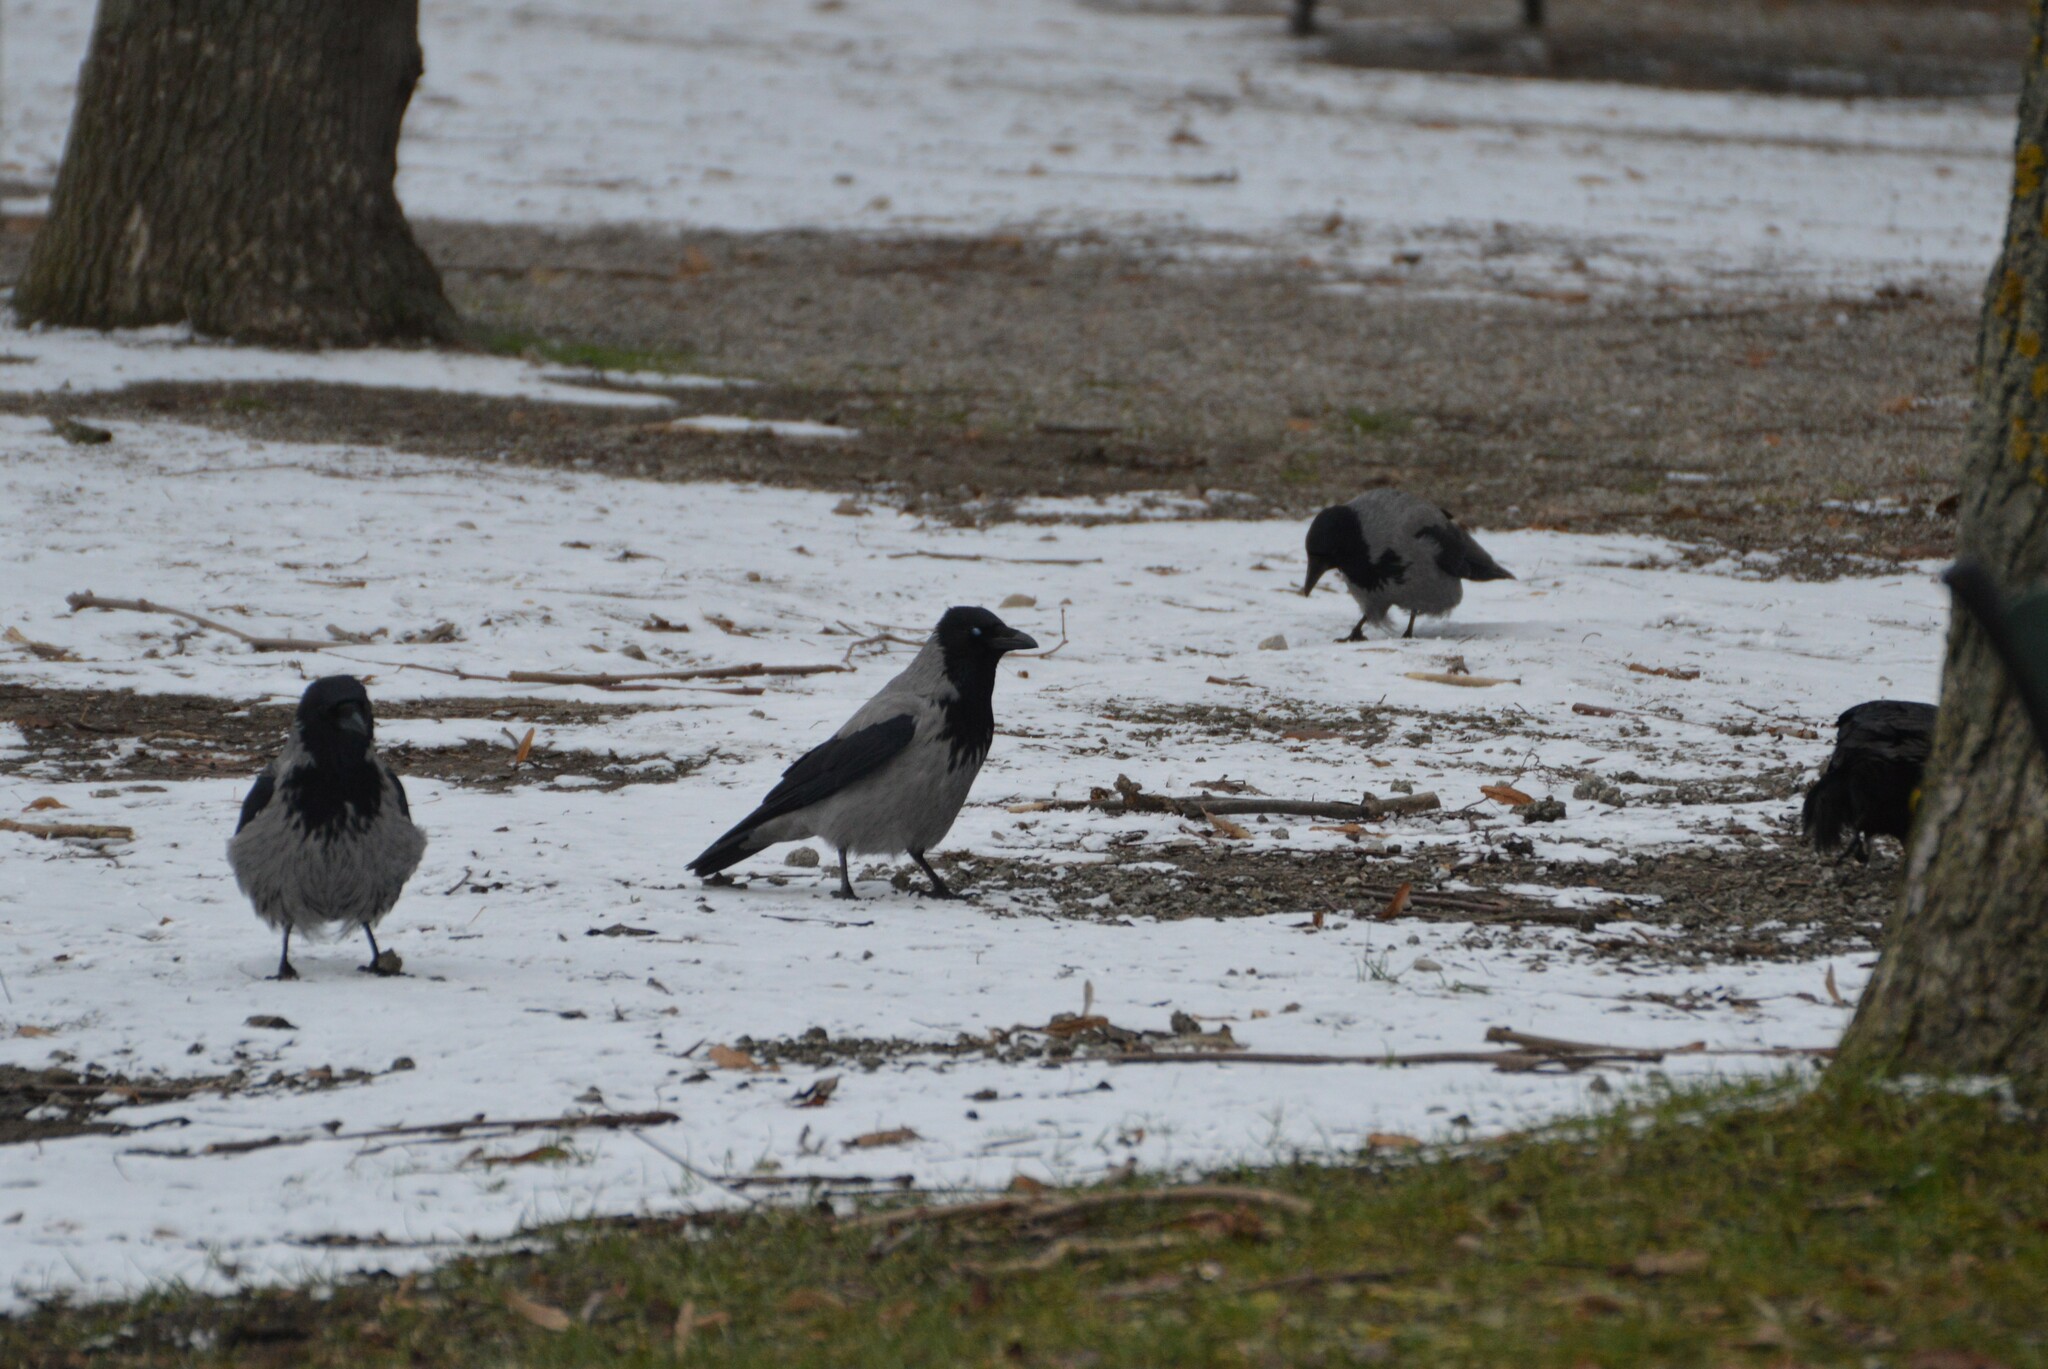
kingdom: Animalia
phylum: Chordata
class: Aves
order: Passeriformes
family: Corvidae
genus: Corvus
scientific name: Corvus cornix
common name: Hooded crow
